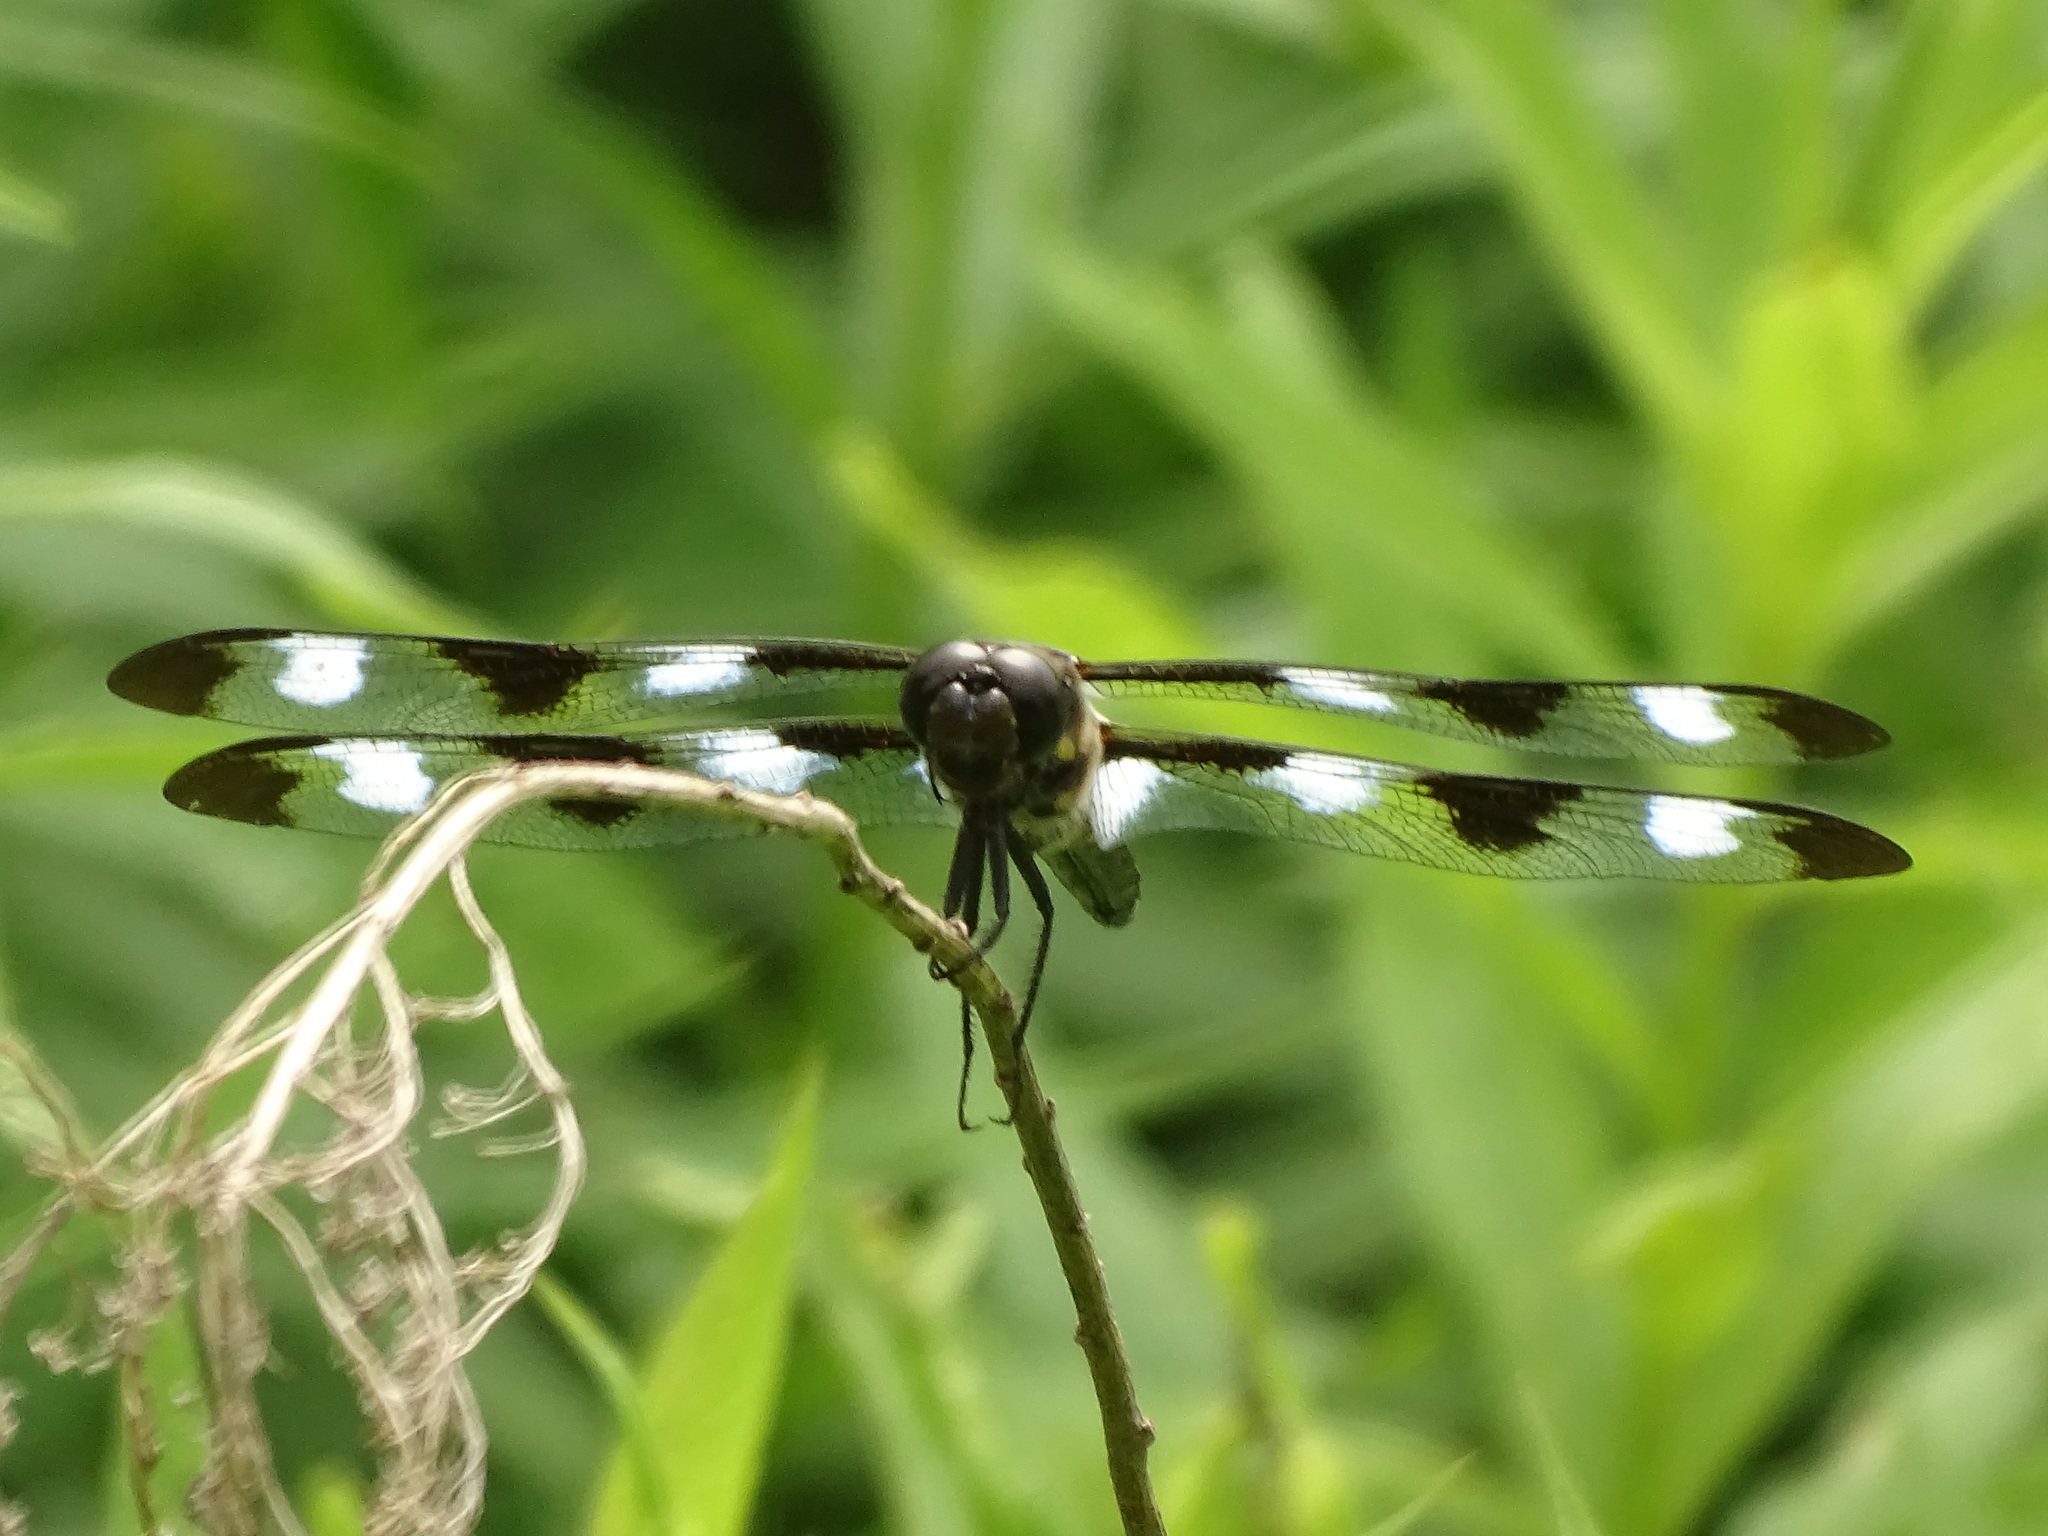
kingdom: Animalia
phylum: Arthropoda
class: Insecta
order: Odonata
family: Libellulidae
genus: Libellula
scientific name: Libellula pulchella
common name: Twelve-spotted skimmer
